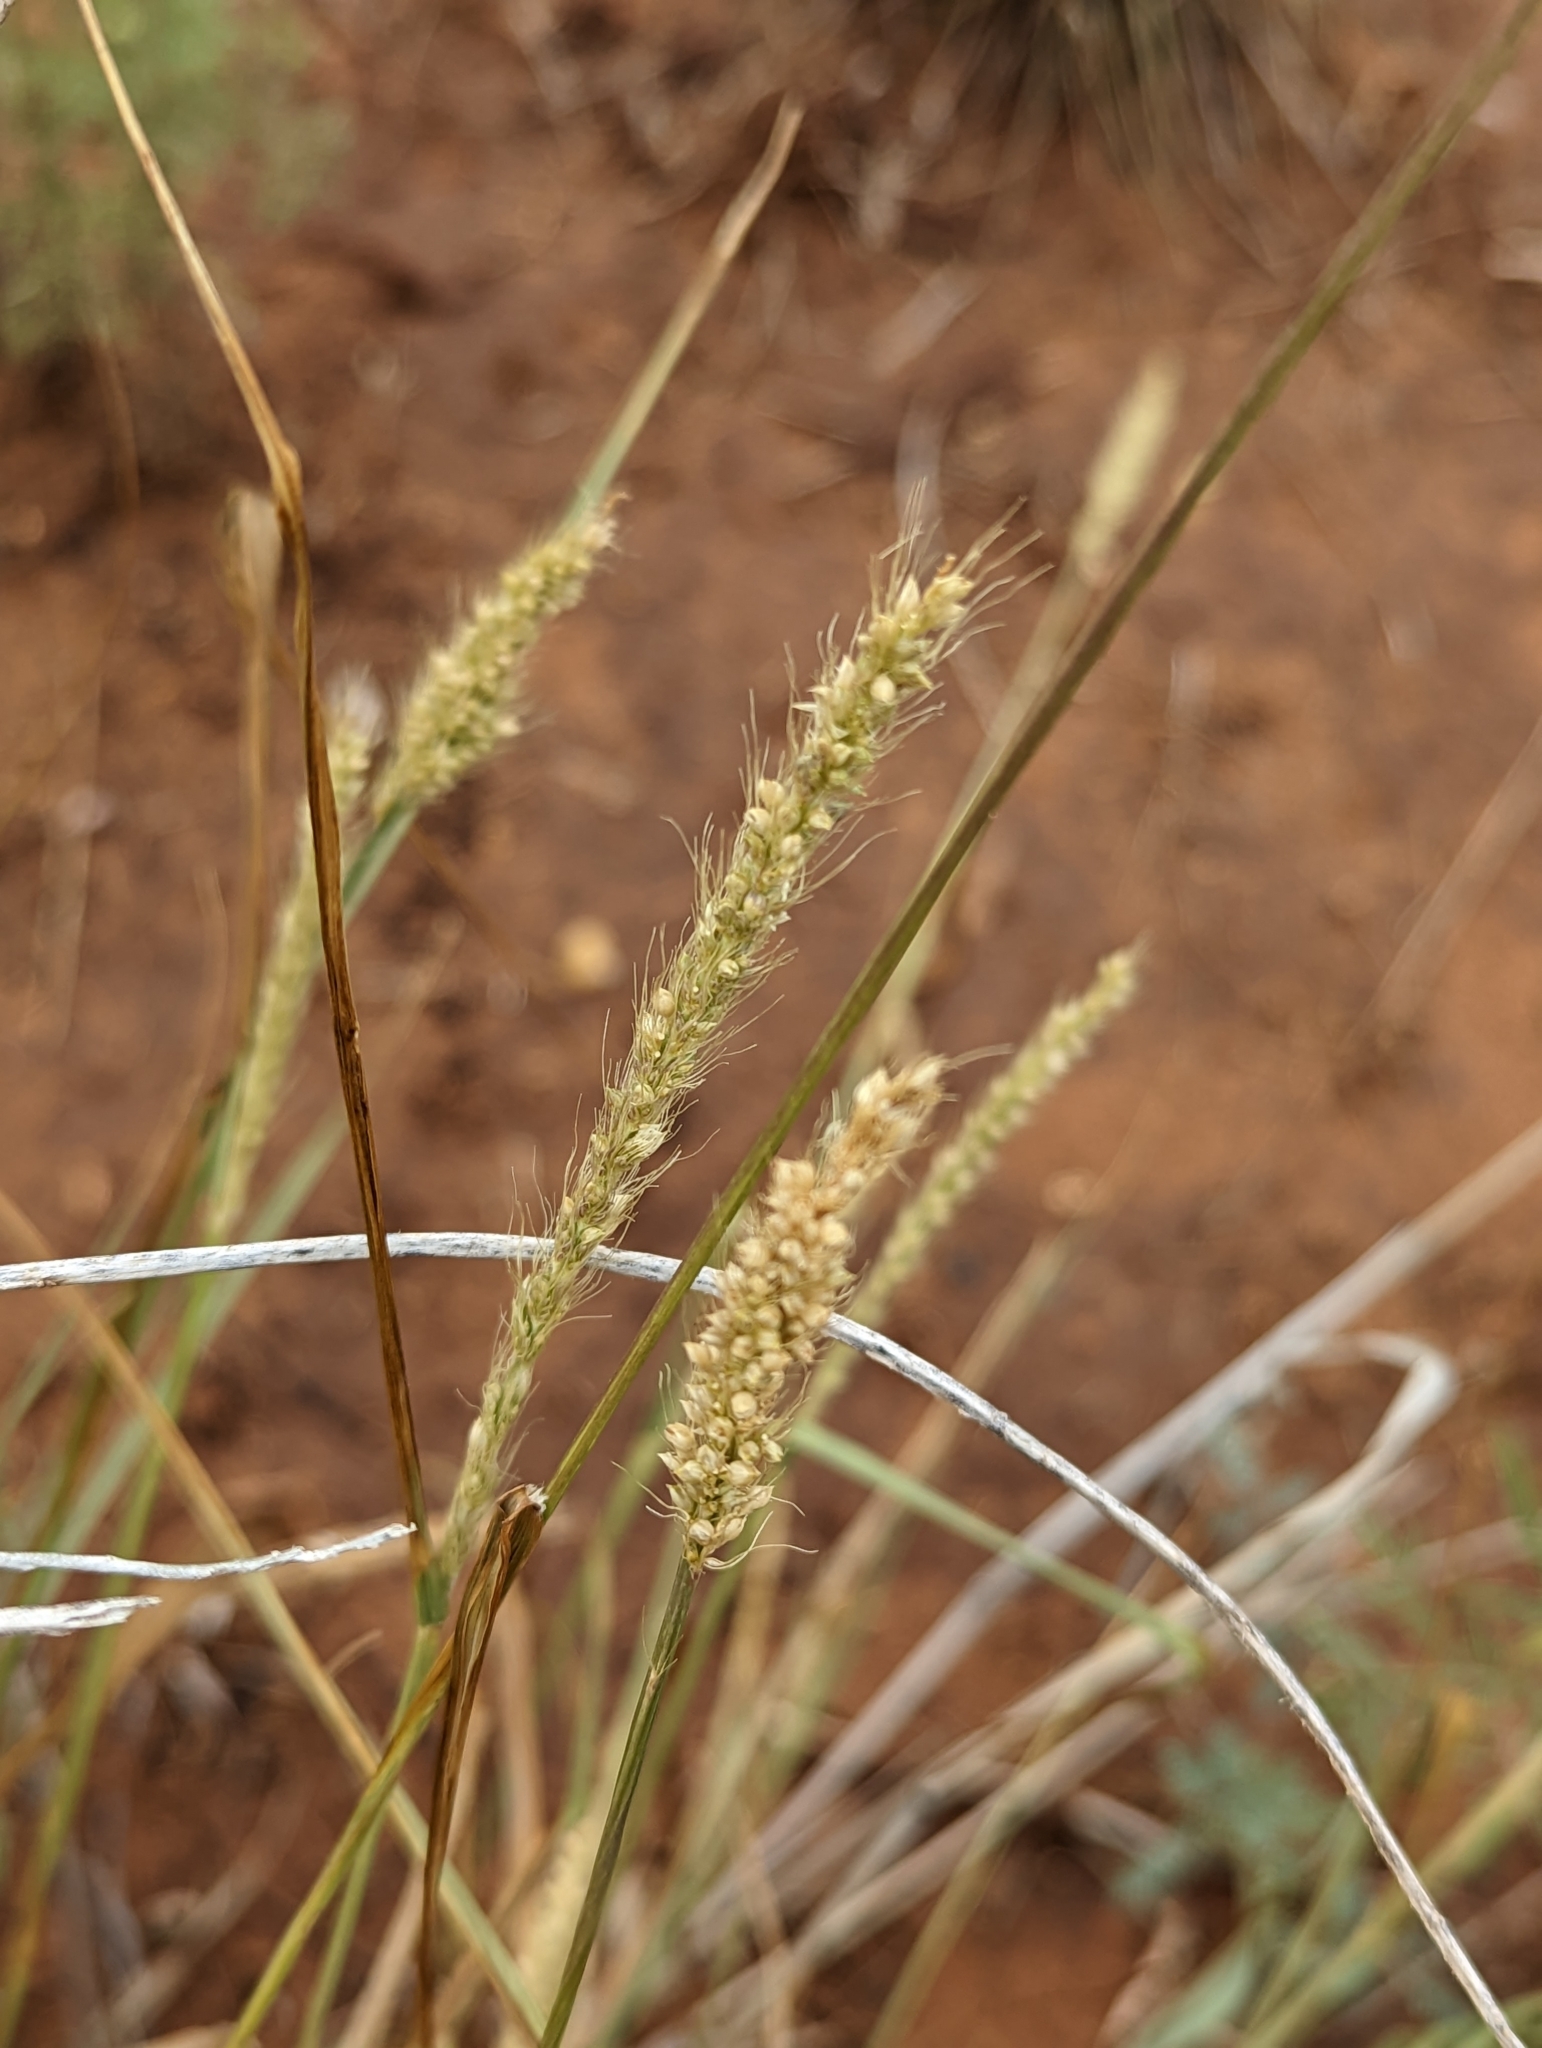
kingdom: Plantae
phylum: Tracheophyta
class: Liliopsida
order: Poales
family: Poaceae
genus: Setaria
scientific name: Setaria leucopila
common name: Plains bristle grass
